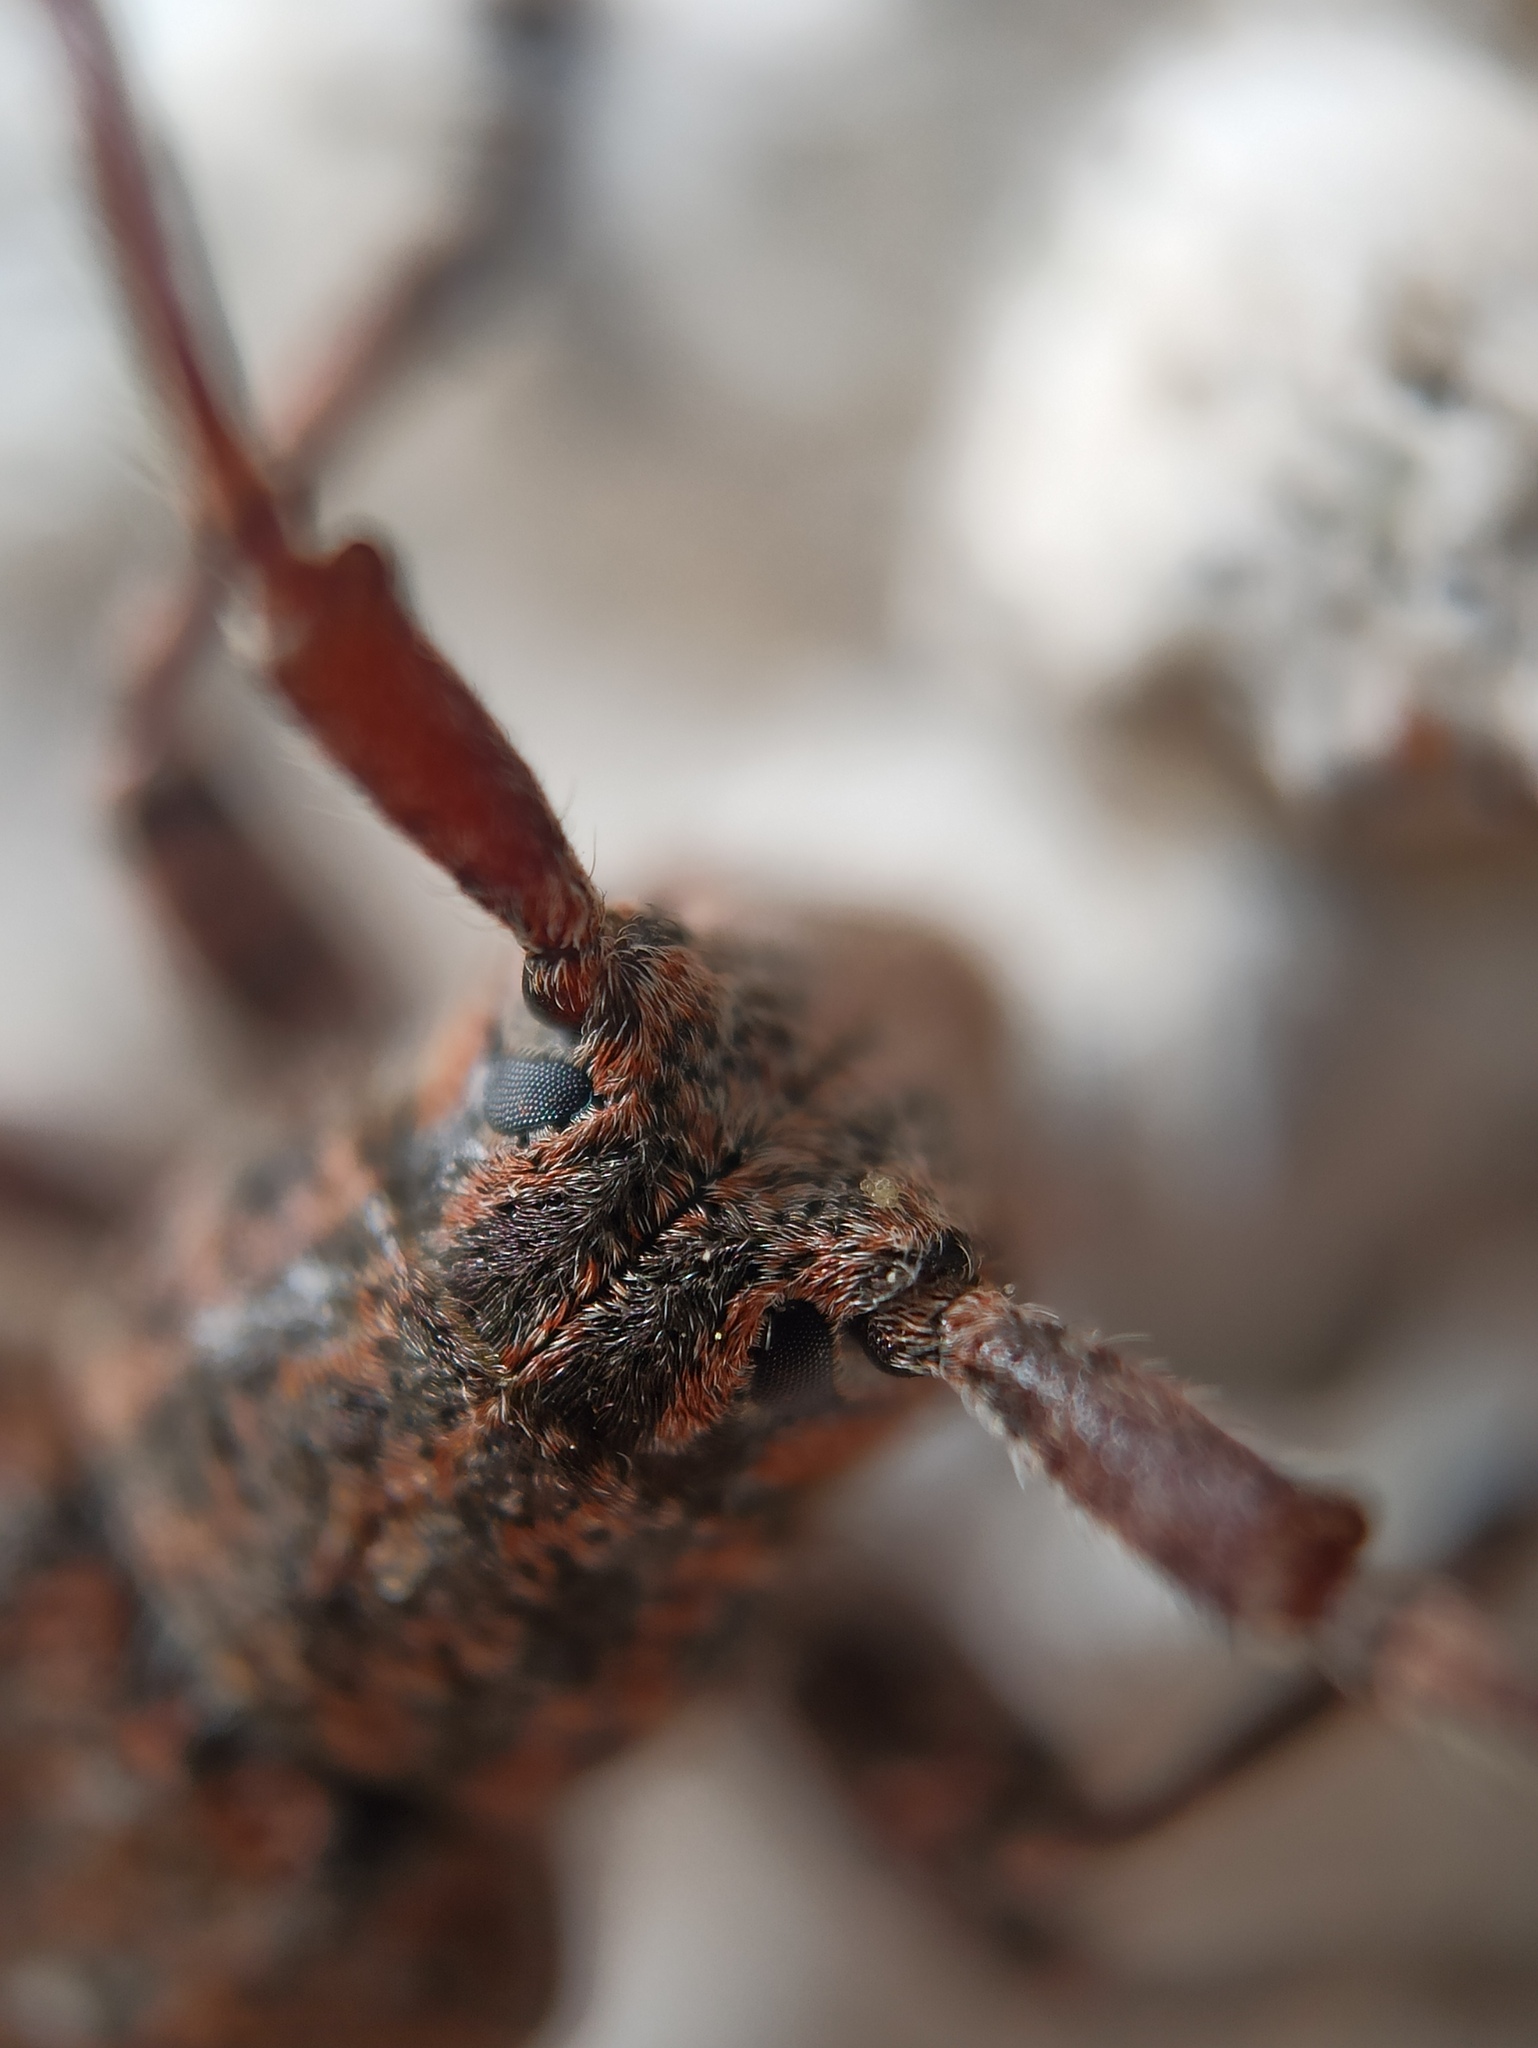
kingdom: Animalia
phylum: Arthropoda
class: Insecta
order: Coleoptera
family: Cerambycidae
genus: Mesosa
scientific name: Mesosa nebulosa
